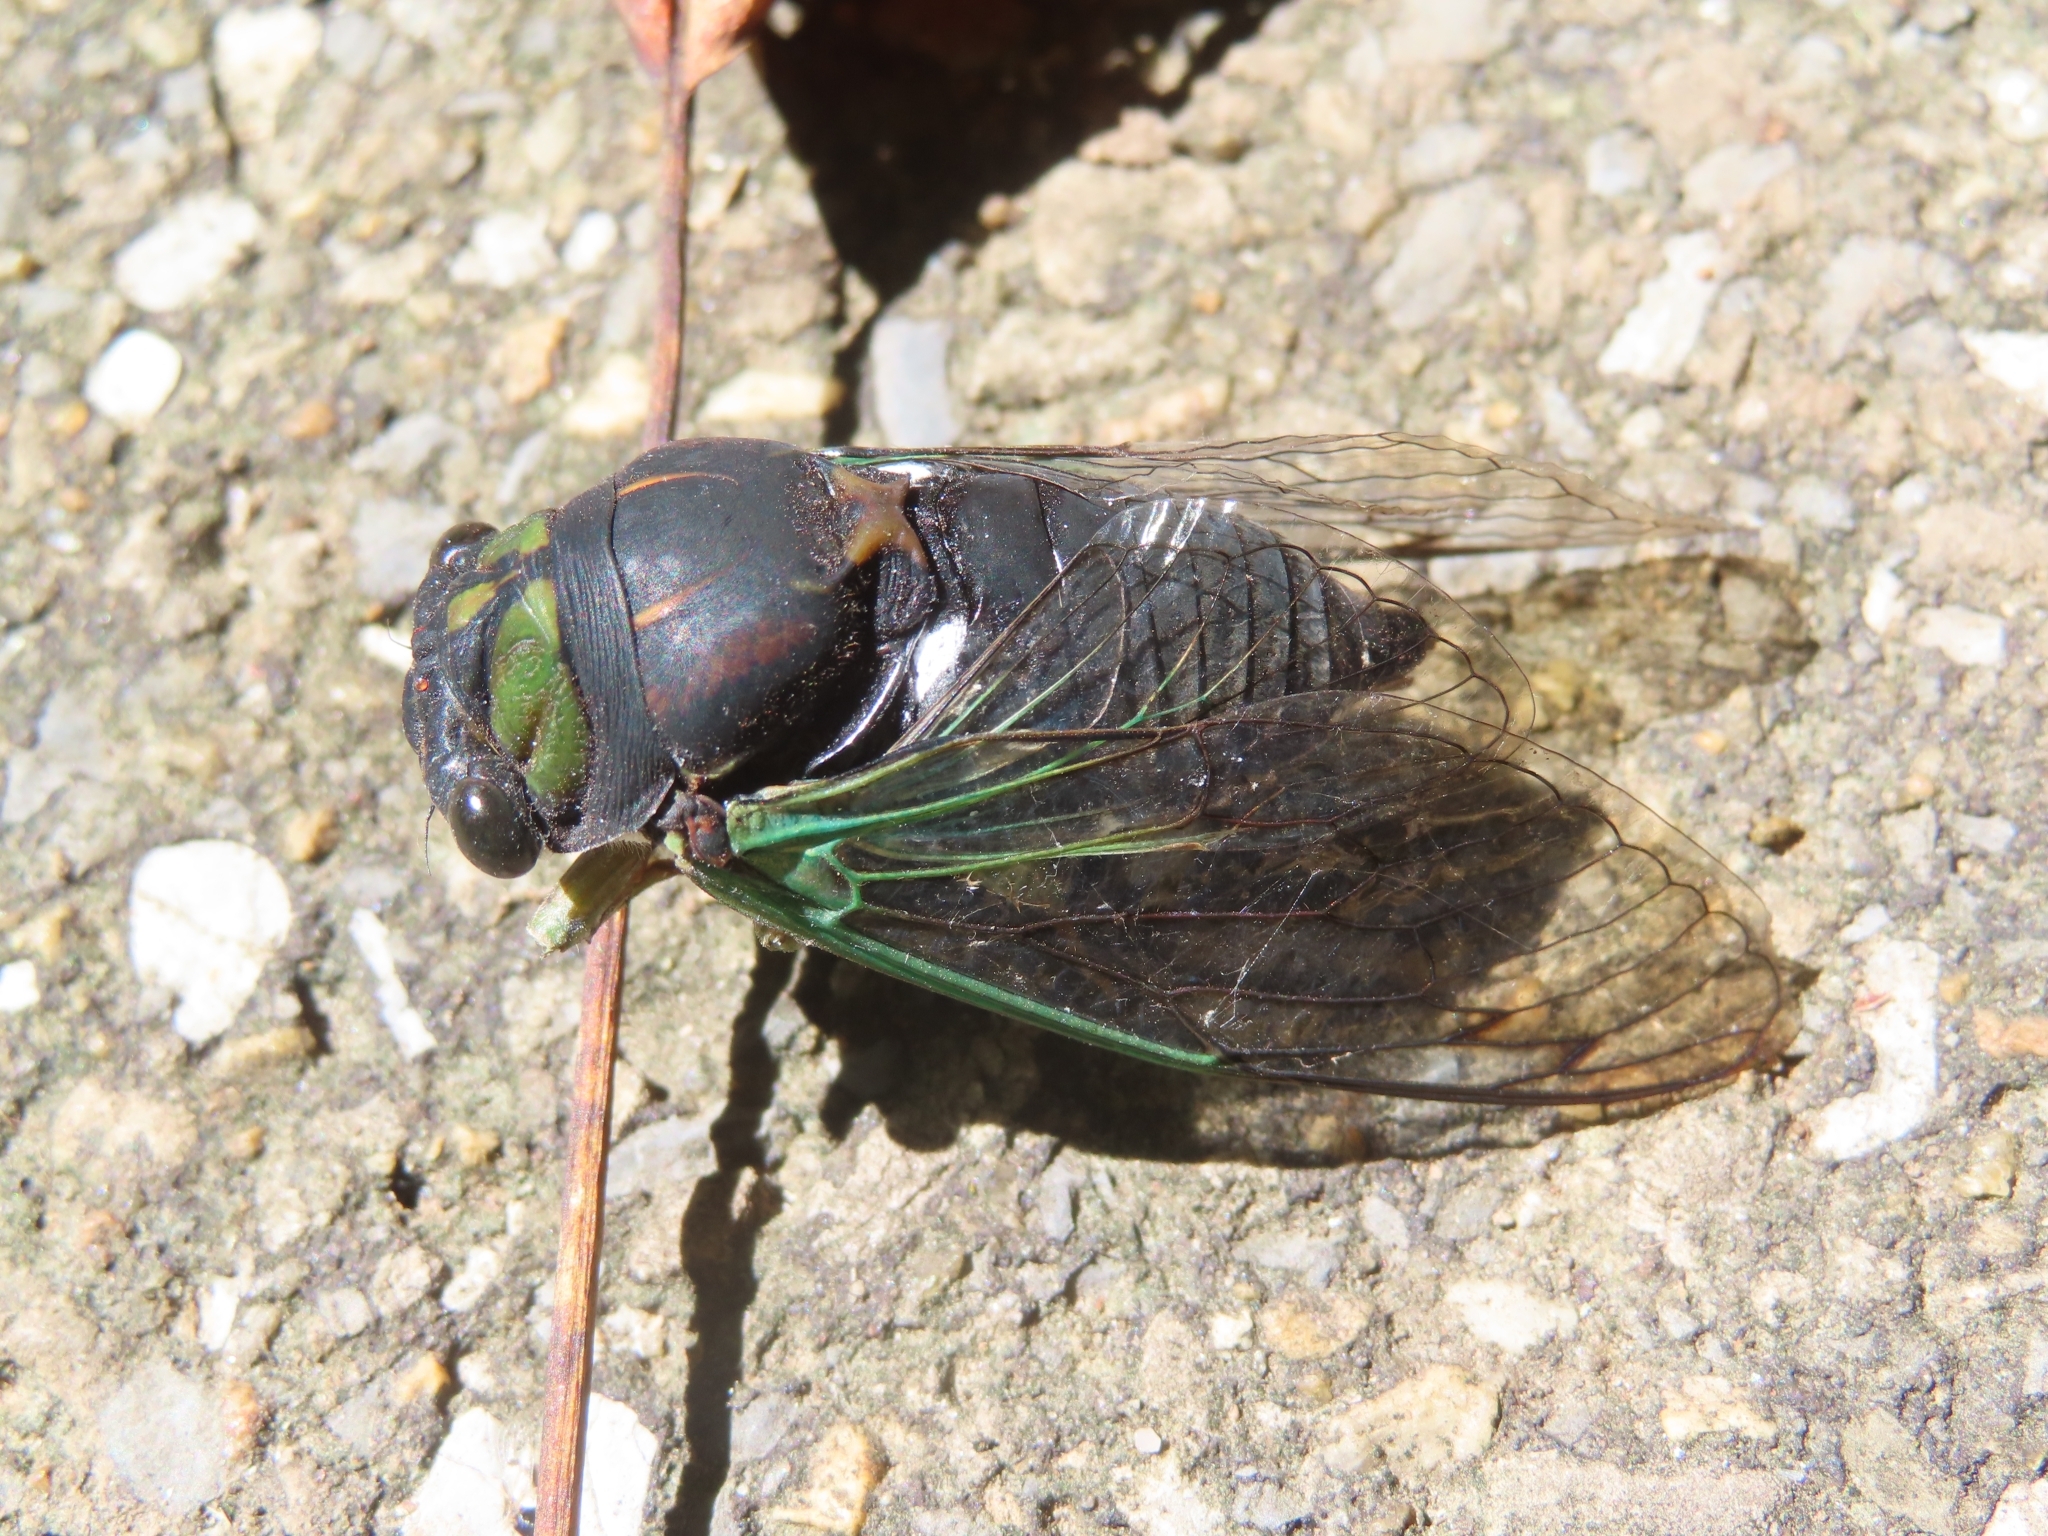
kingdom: Animalia
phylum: Arthropoda
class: Insecta
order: Hemiptera
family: Cicadidae
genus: Neotibicen
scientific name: Neotibicen tibicen
